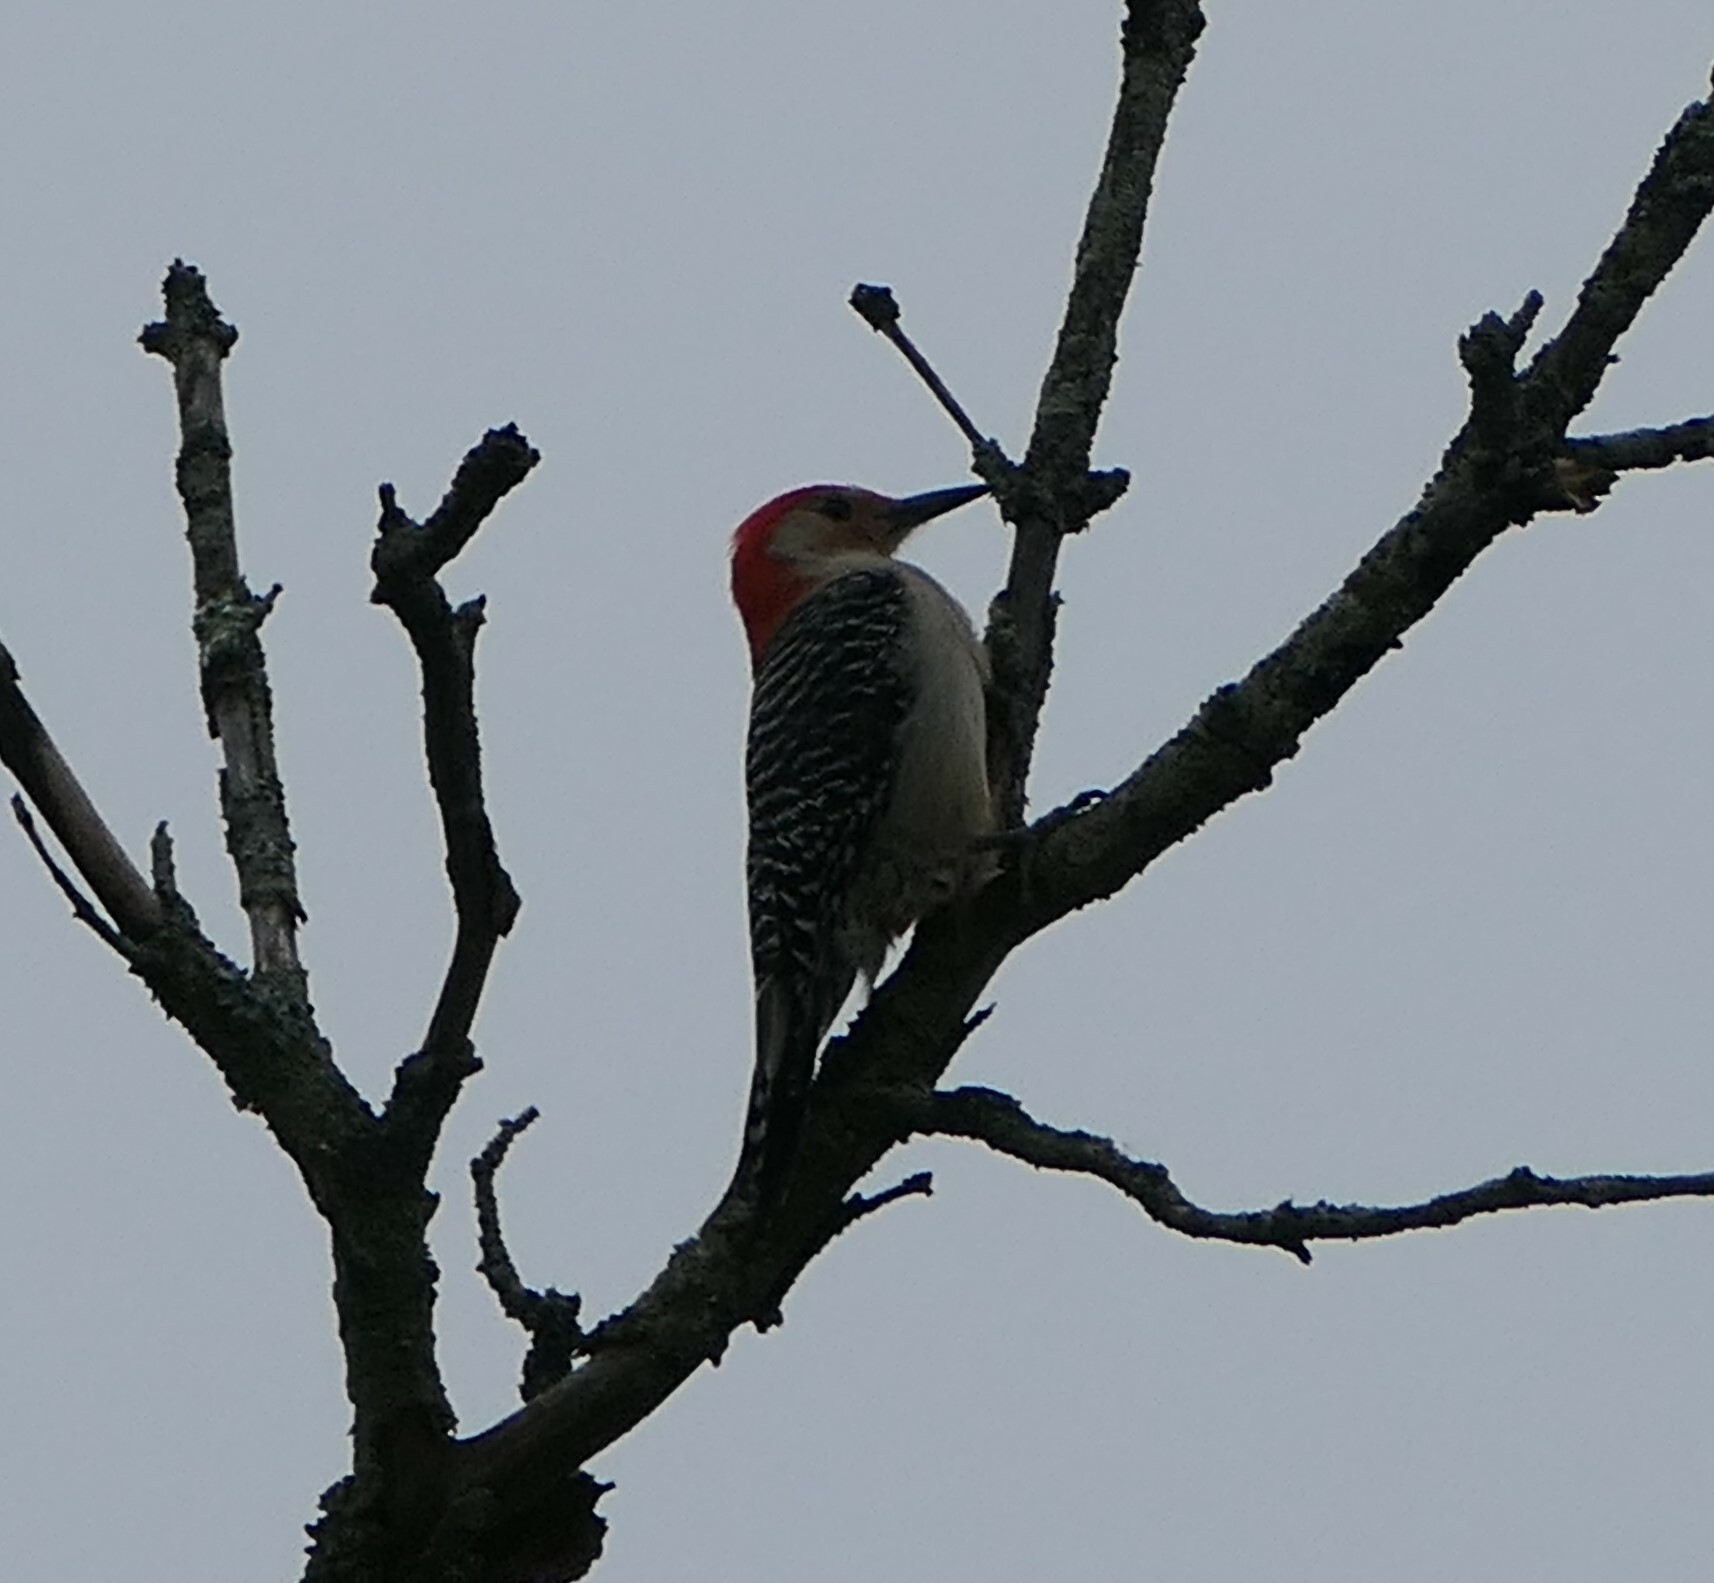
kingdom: Animalia
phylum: Chordata
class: Aves
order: Piciformes
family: Picidae
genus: Melanerpes
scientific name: Melanerpes carolinus
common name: Red-bellied woodpecker
